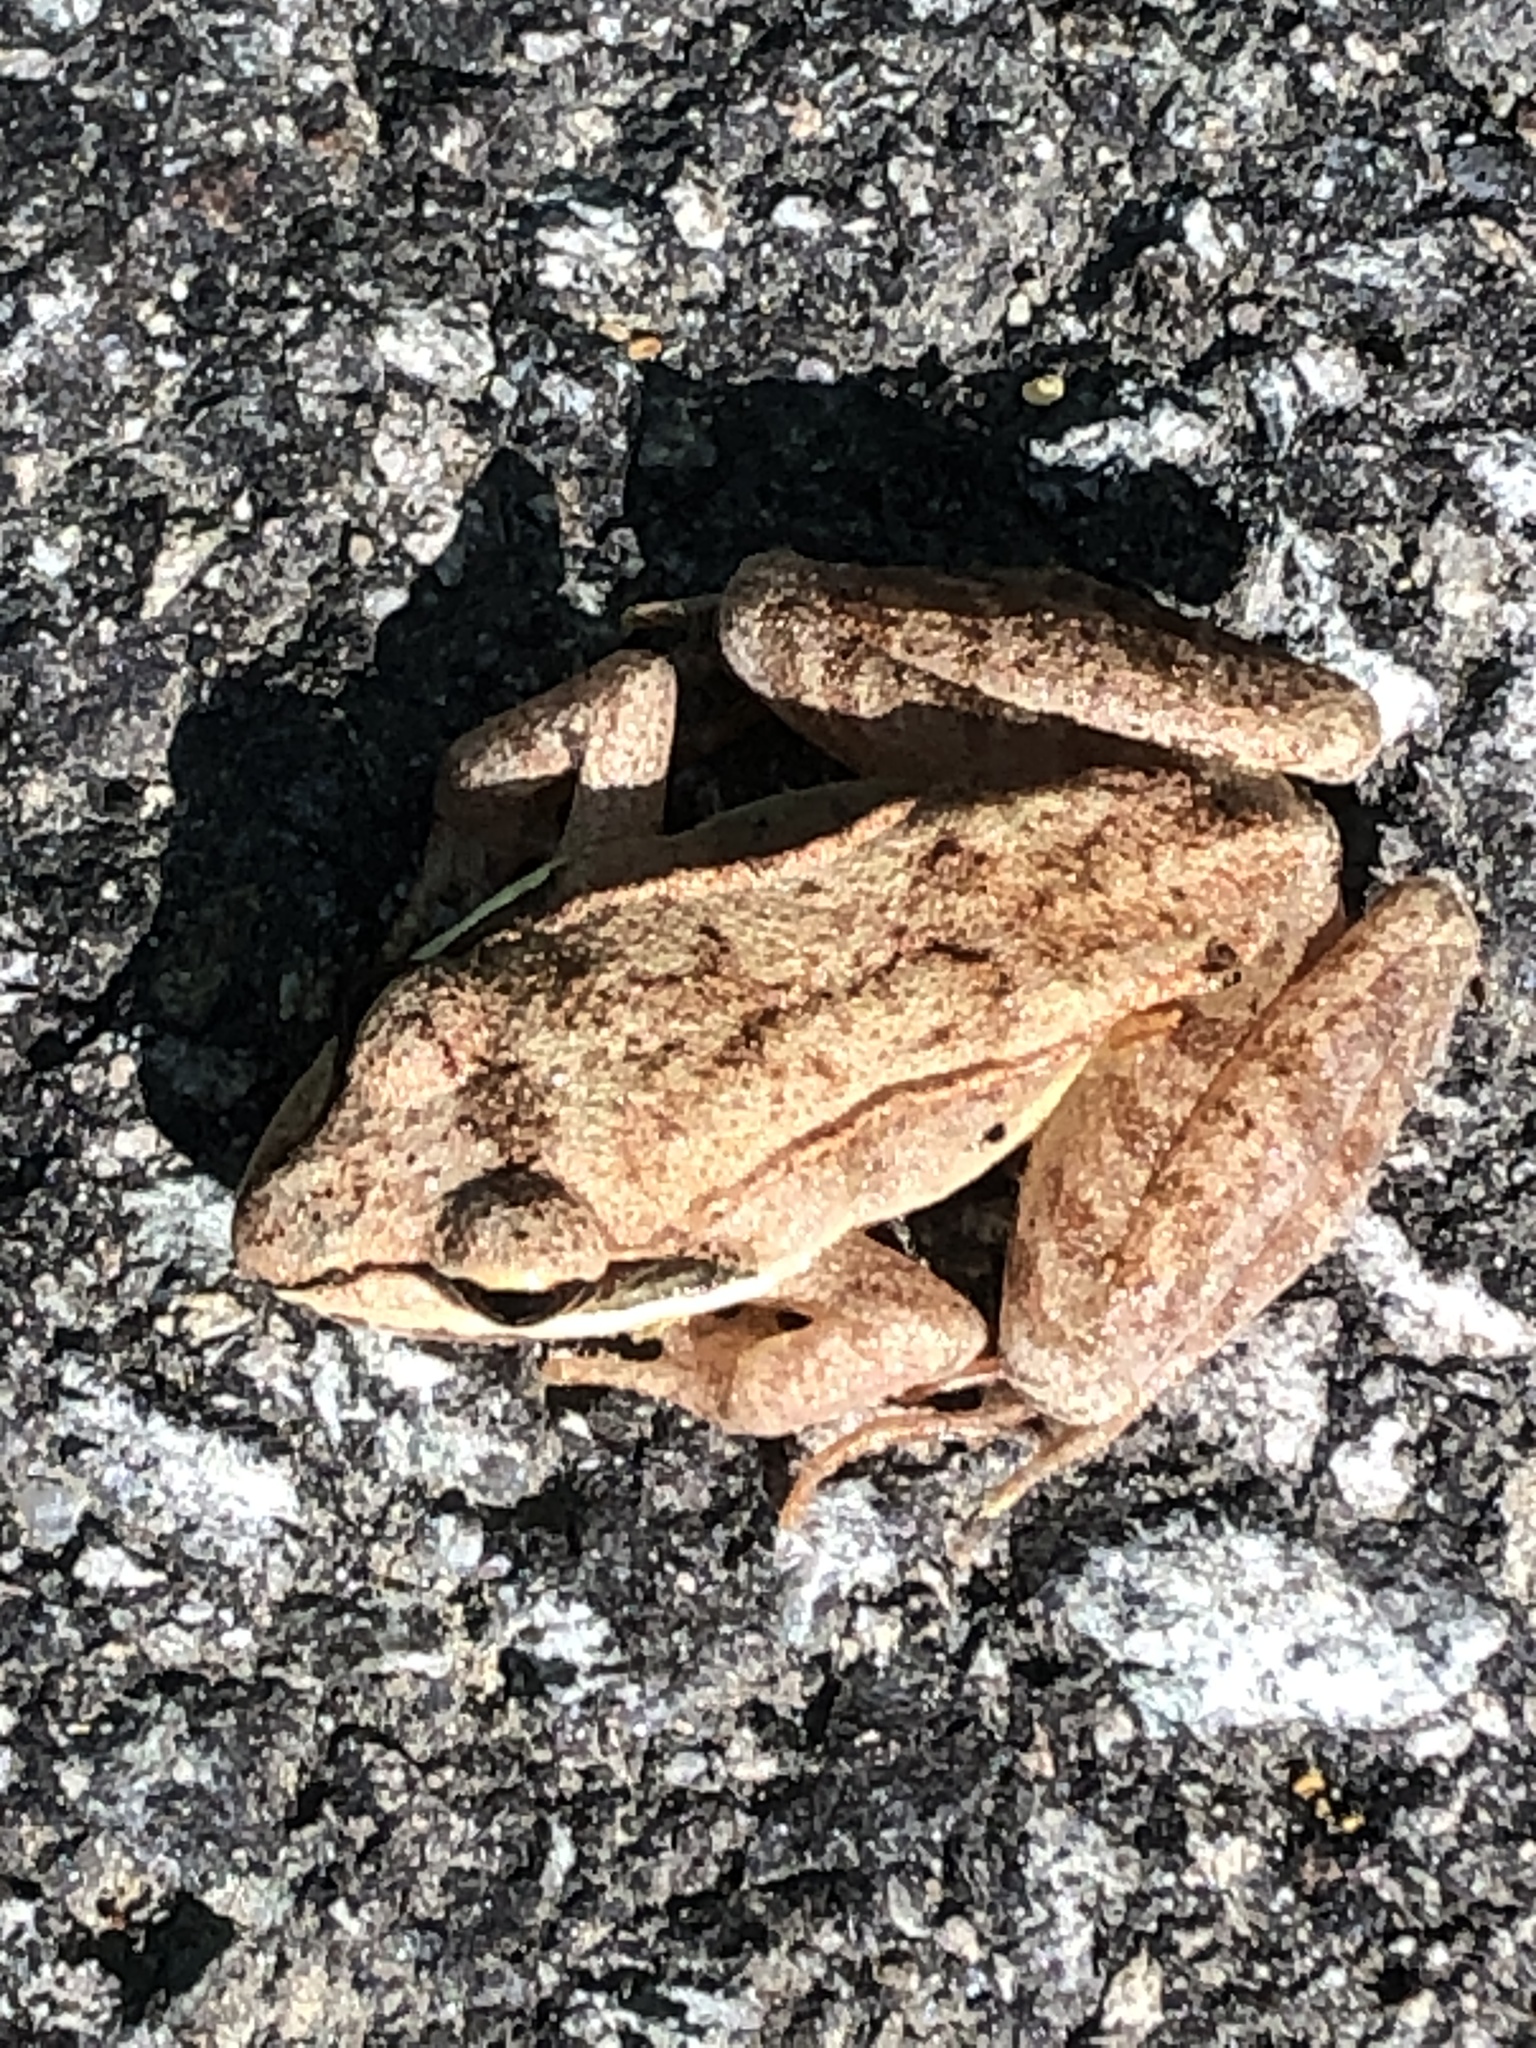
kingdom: Animalia
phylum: Chordata
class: Amphibia
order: Anura
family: Ranidae
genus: Lithobates
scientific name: Lithobates sylvaticus
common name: Wood frog
